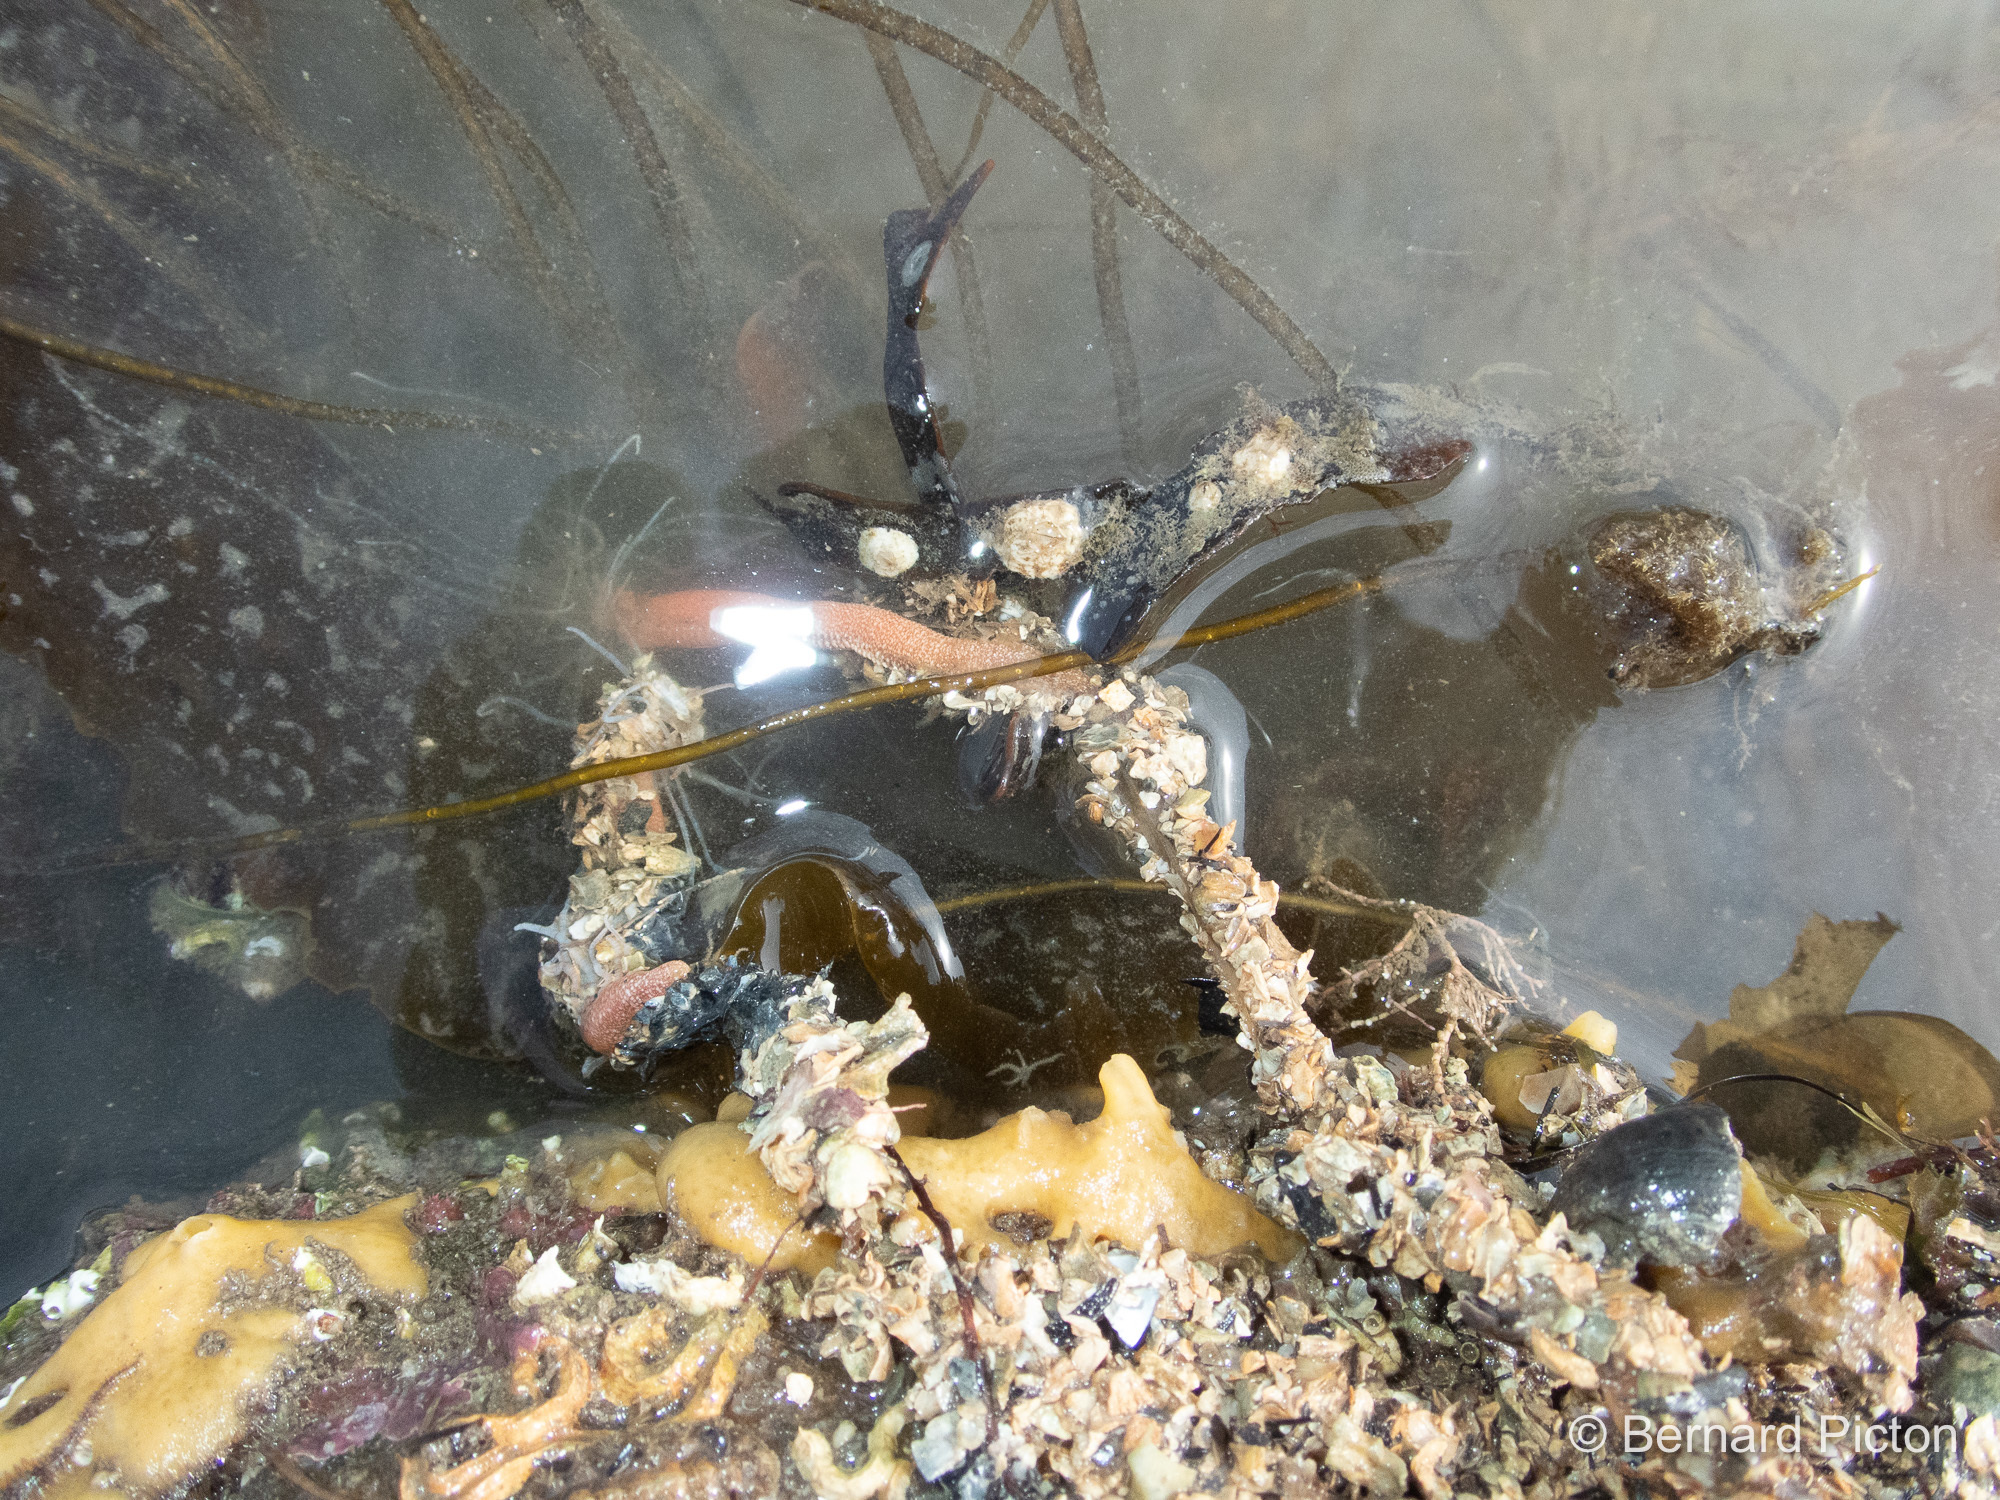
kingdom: Animalia
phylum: Annelida
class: Polychaeta
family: Terebellidae
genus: Eupolymnia
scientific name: Eupolymnia nebulosa
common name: Strawberry worm
